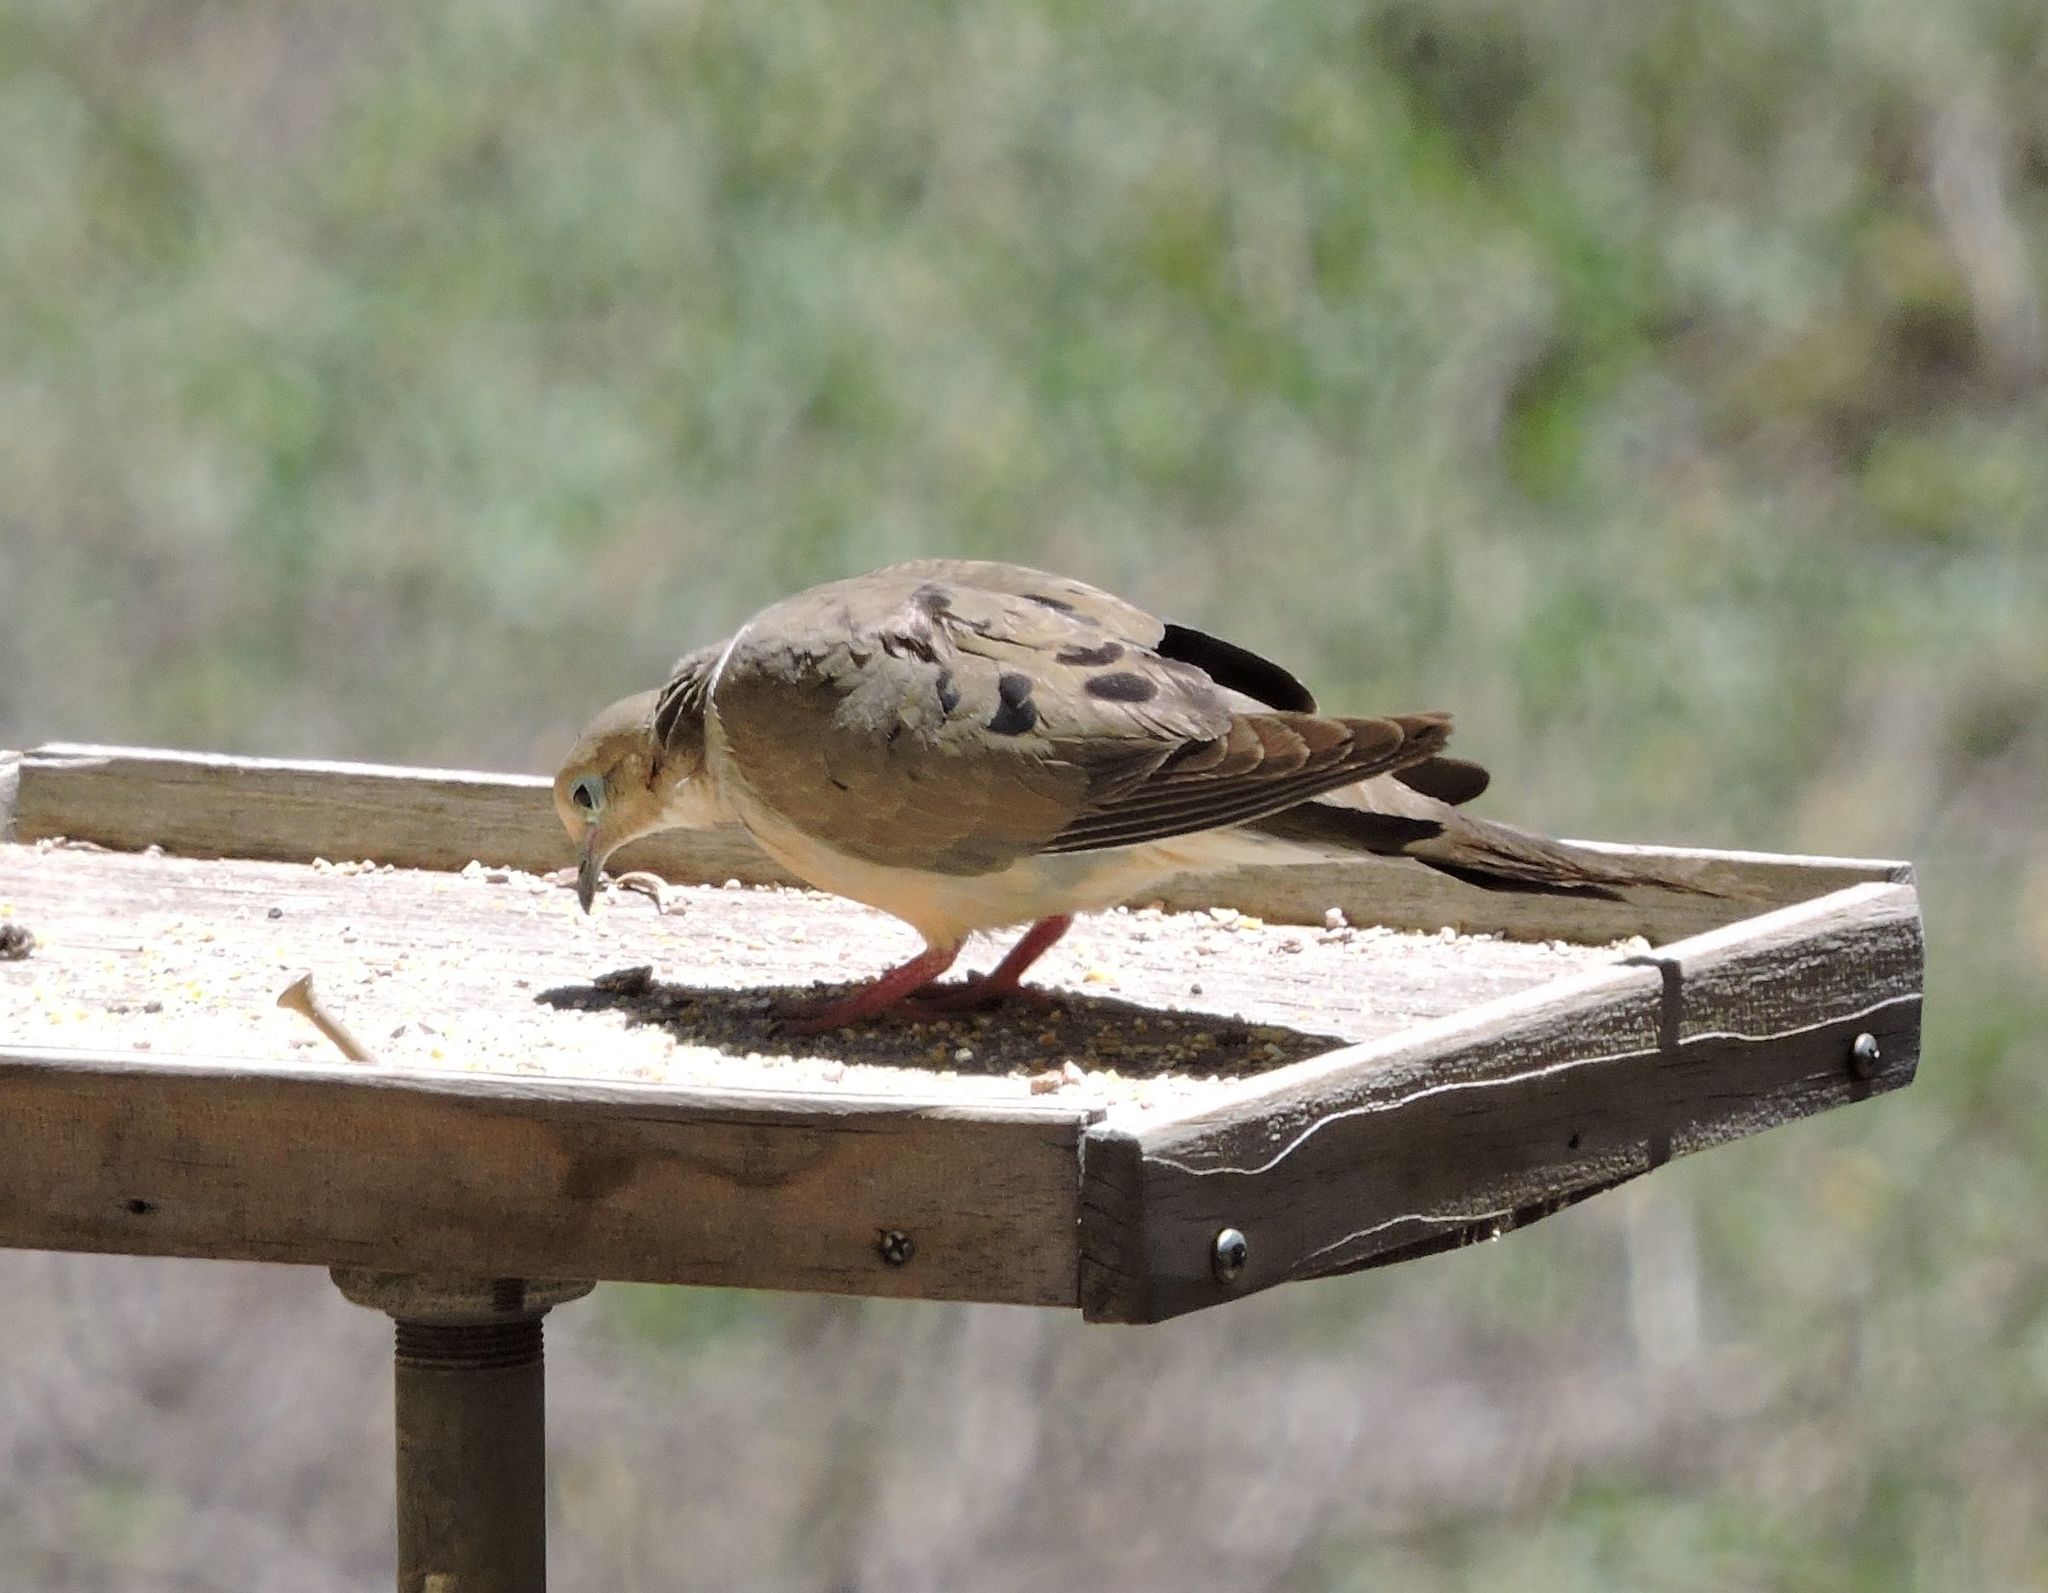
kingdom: Animalia
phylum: Chordata
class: Aves
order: Columbiformes
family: Columbidae
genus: Zenaida
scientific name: Zenaida macroura
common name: Mourning dove
